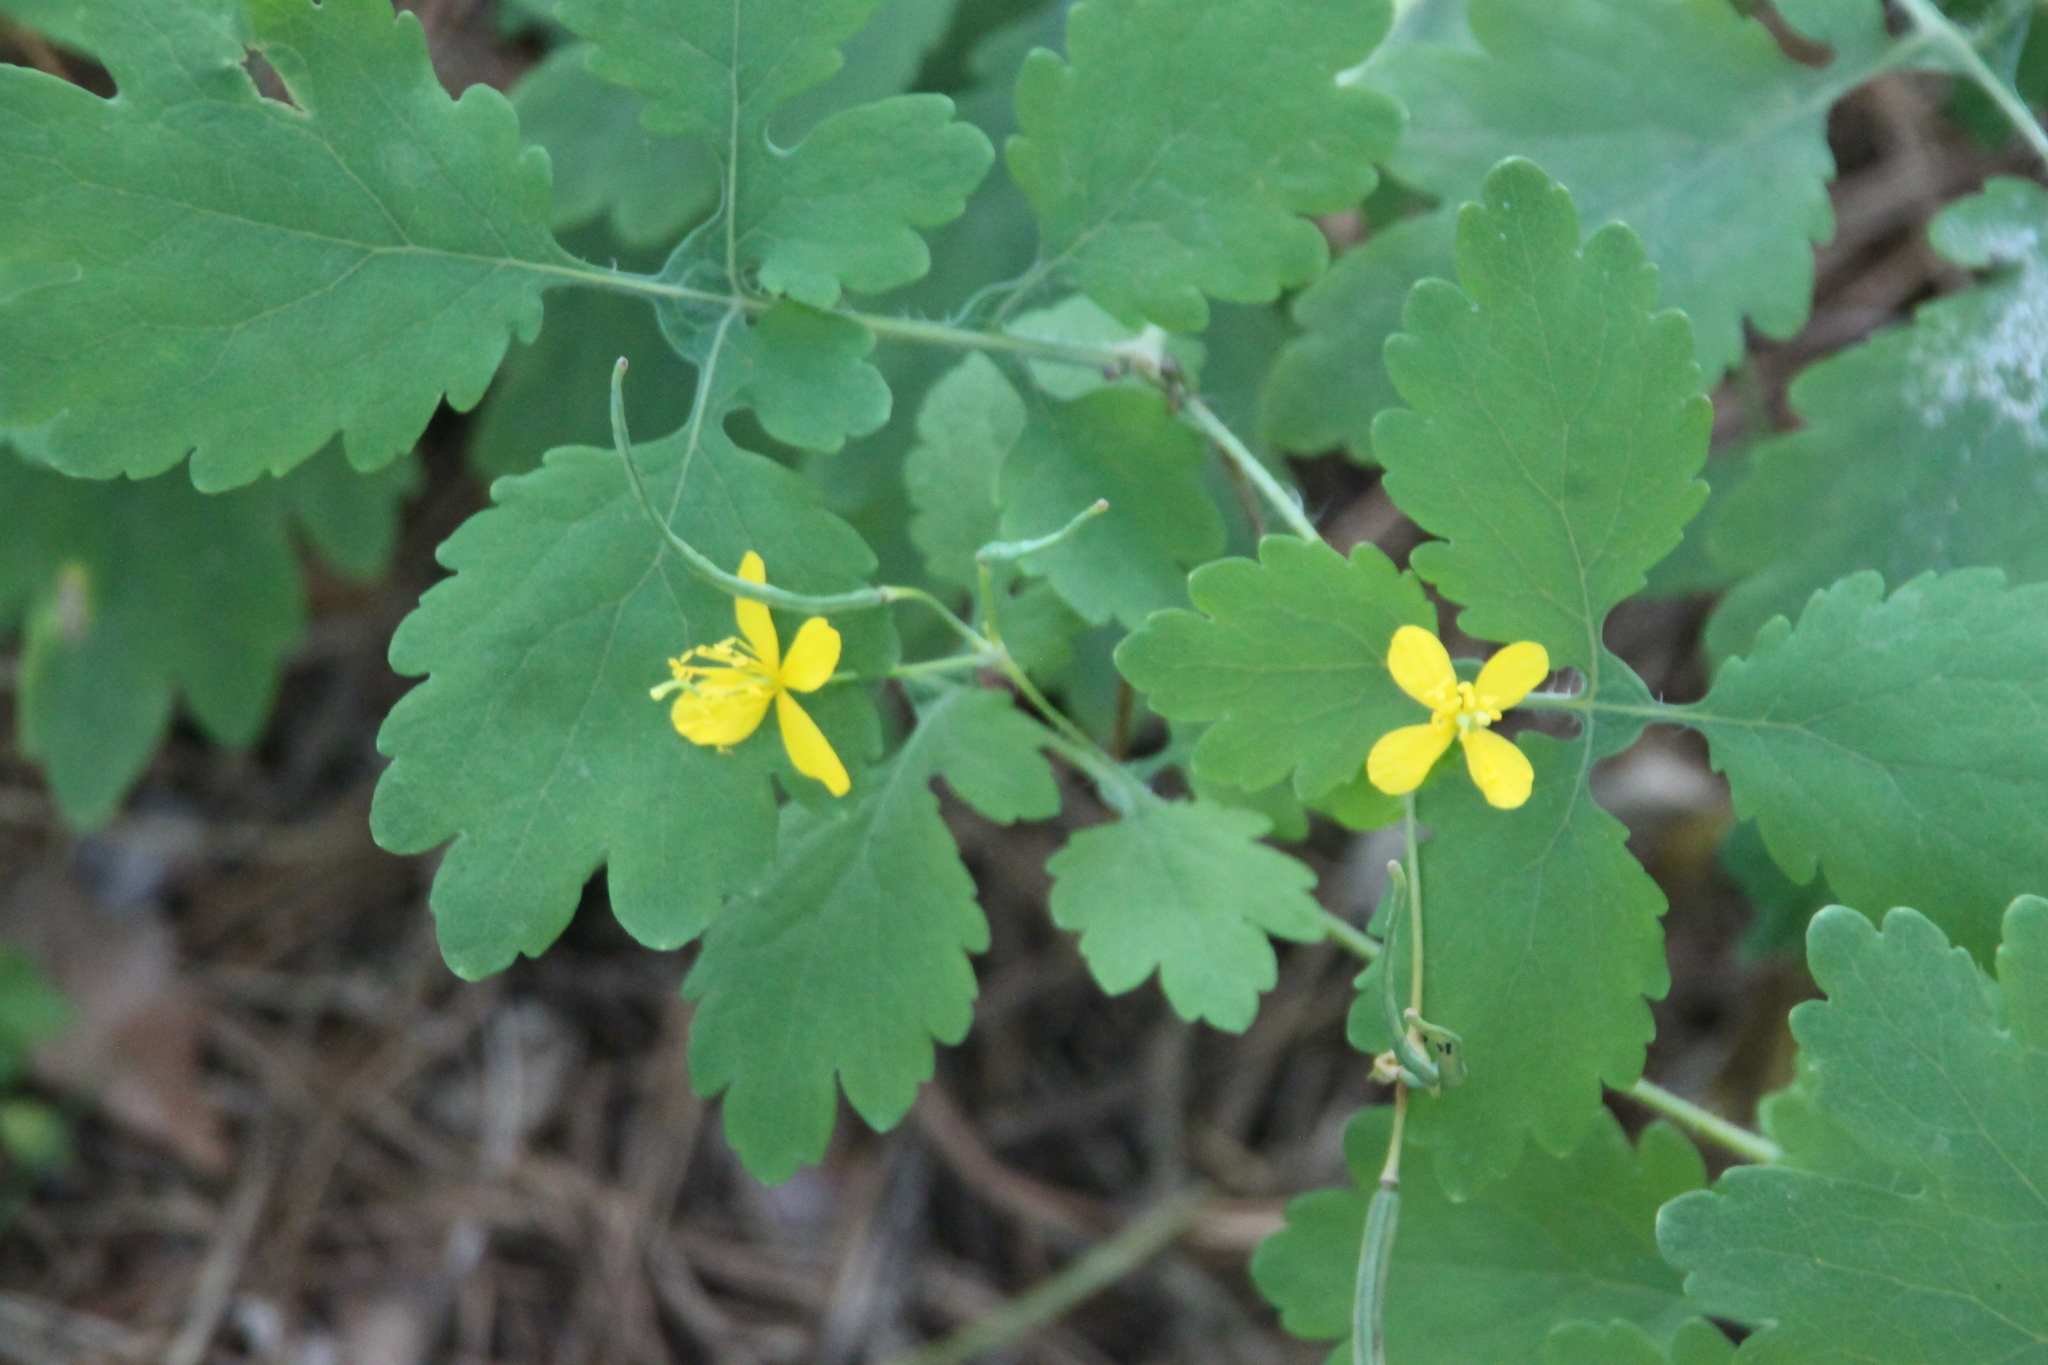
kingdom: Plantae
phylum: Tracheophyta
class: Magnoliopsida
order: Ranunculales
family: Papaveraceae
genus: Chelidonium
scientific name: Chelidonium majus
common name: Greater celandine
